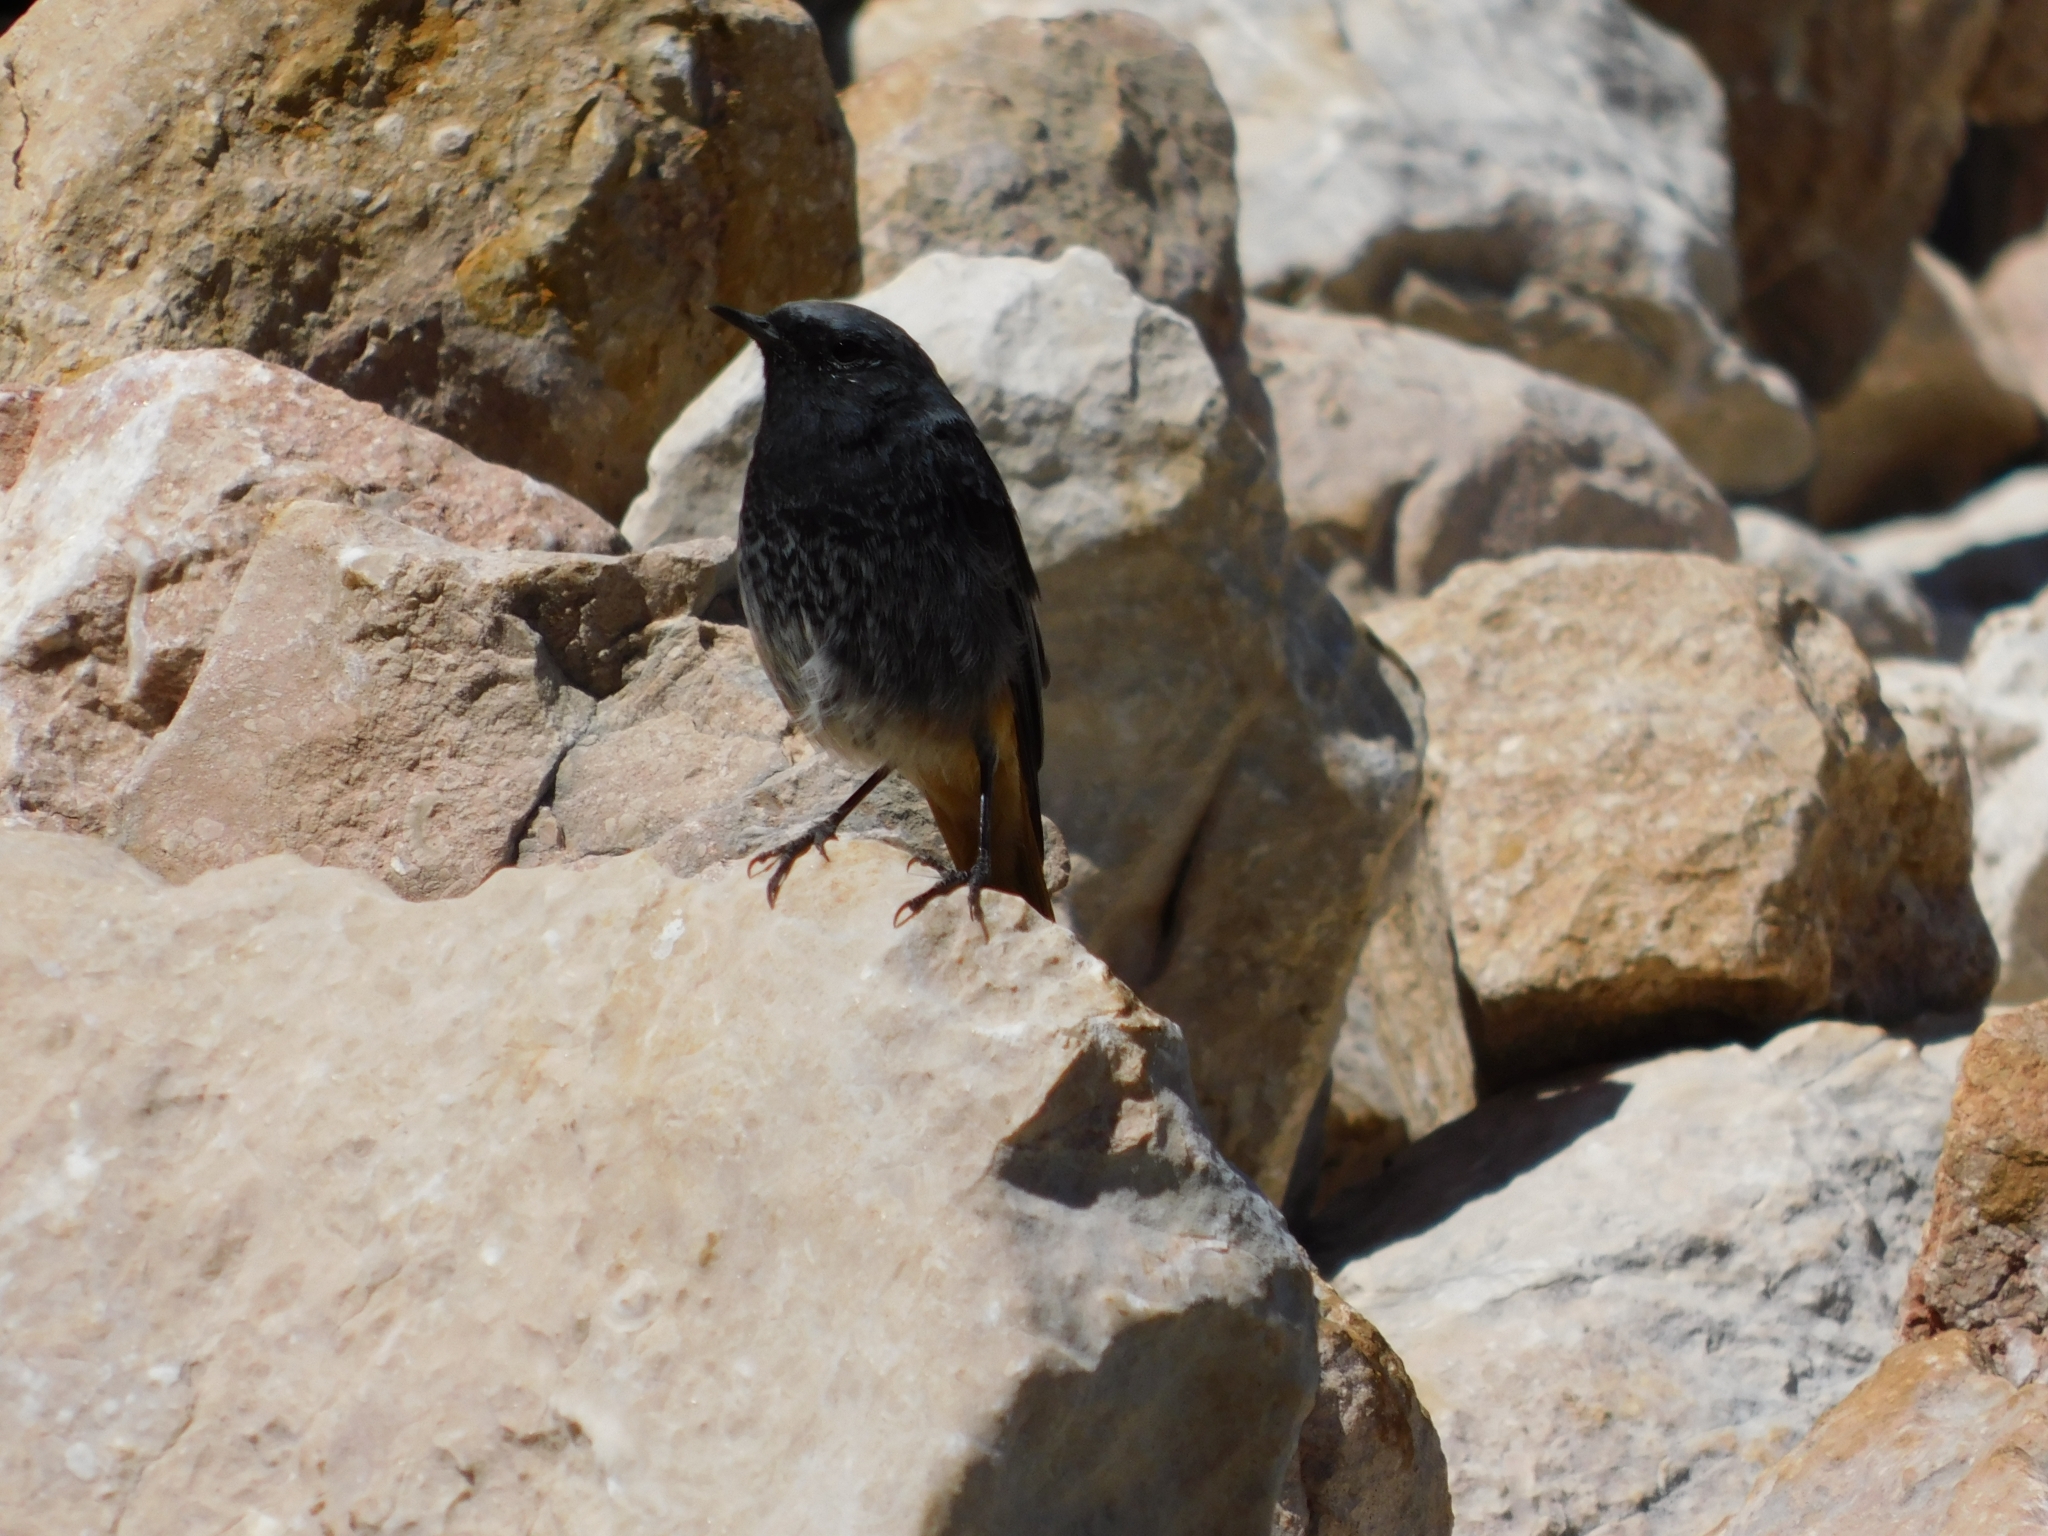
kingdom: Animalia
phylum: Chordata
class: Aves
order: Passeriformes
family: Muscicapidae
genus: Phoenicurus
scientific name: Phoenicurus ochruros
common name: Black redstart
